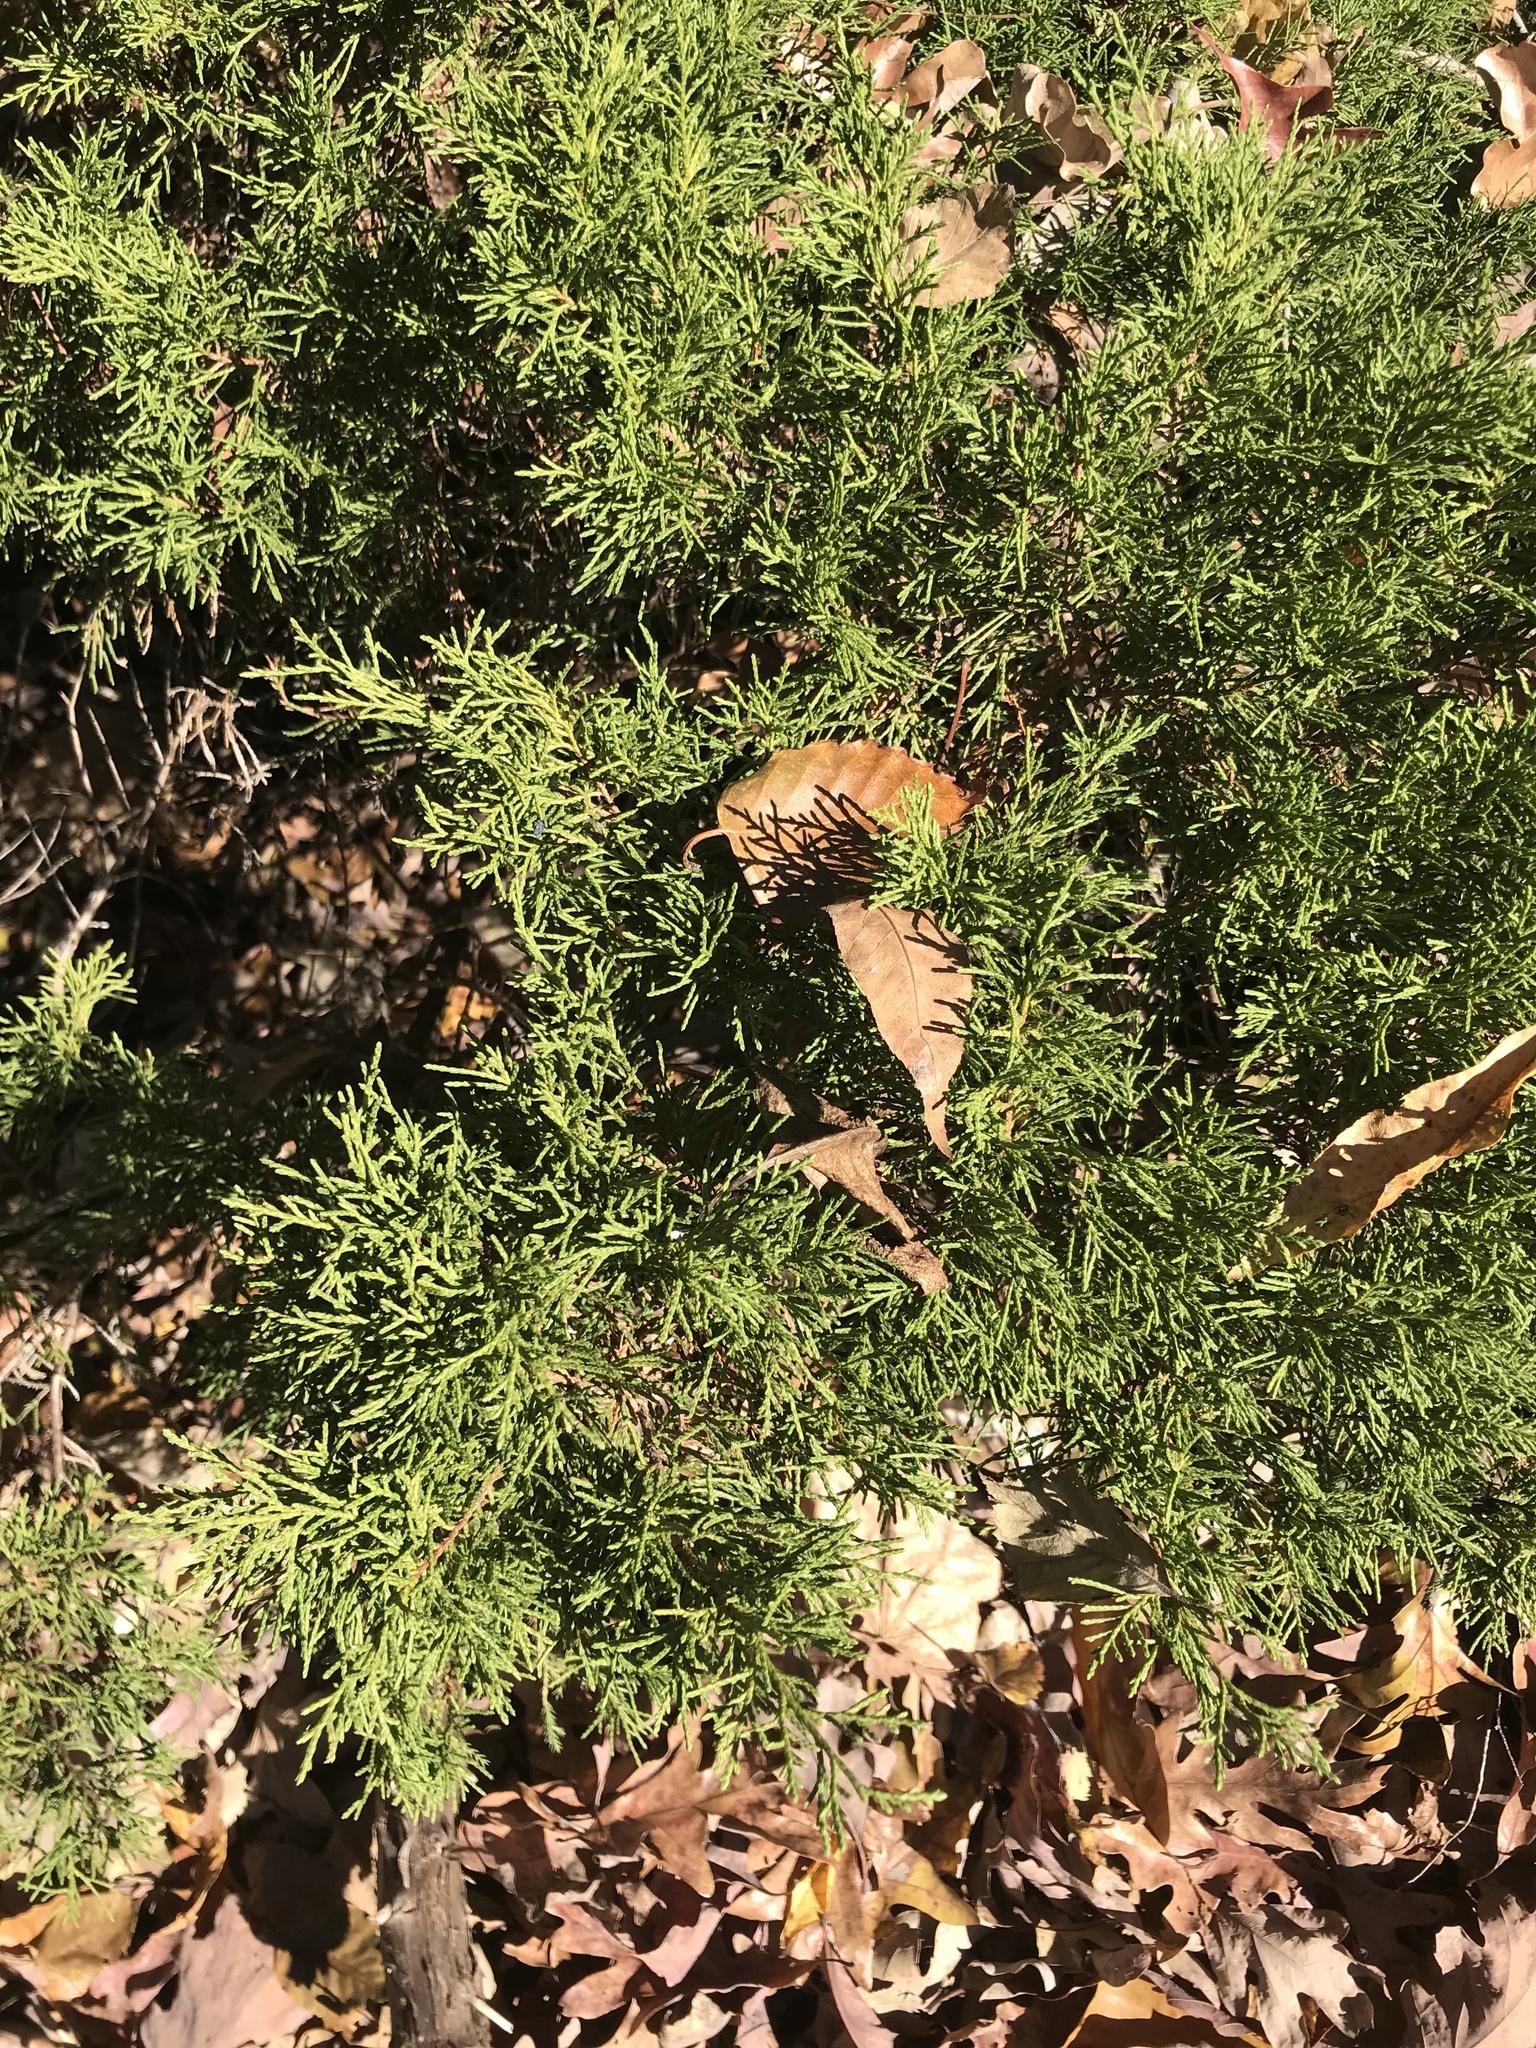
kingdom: Plantae
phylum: Tracheophyta
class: Pinopsida
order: Pinales
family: Cupressaceae
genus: Juniperus
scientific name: Juniperus virginiana
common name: Red juniper
